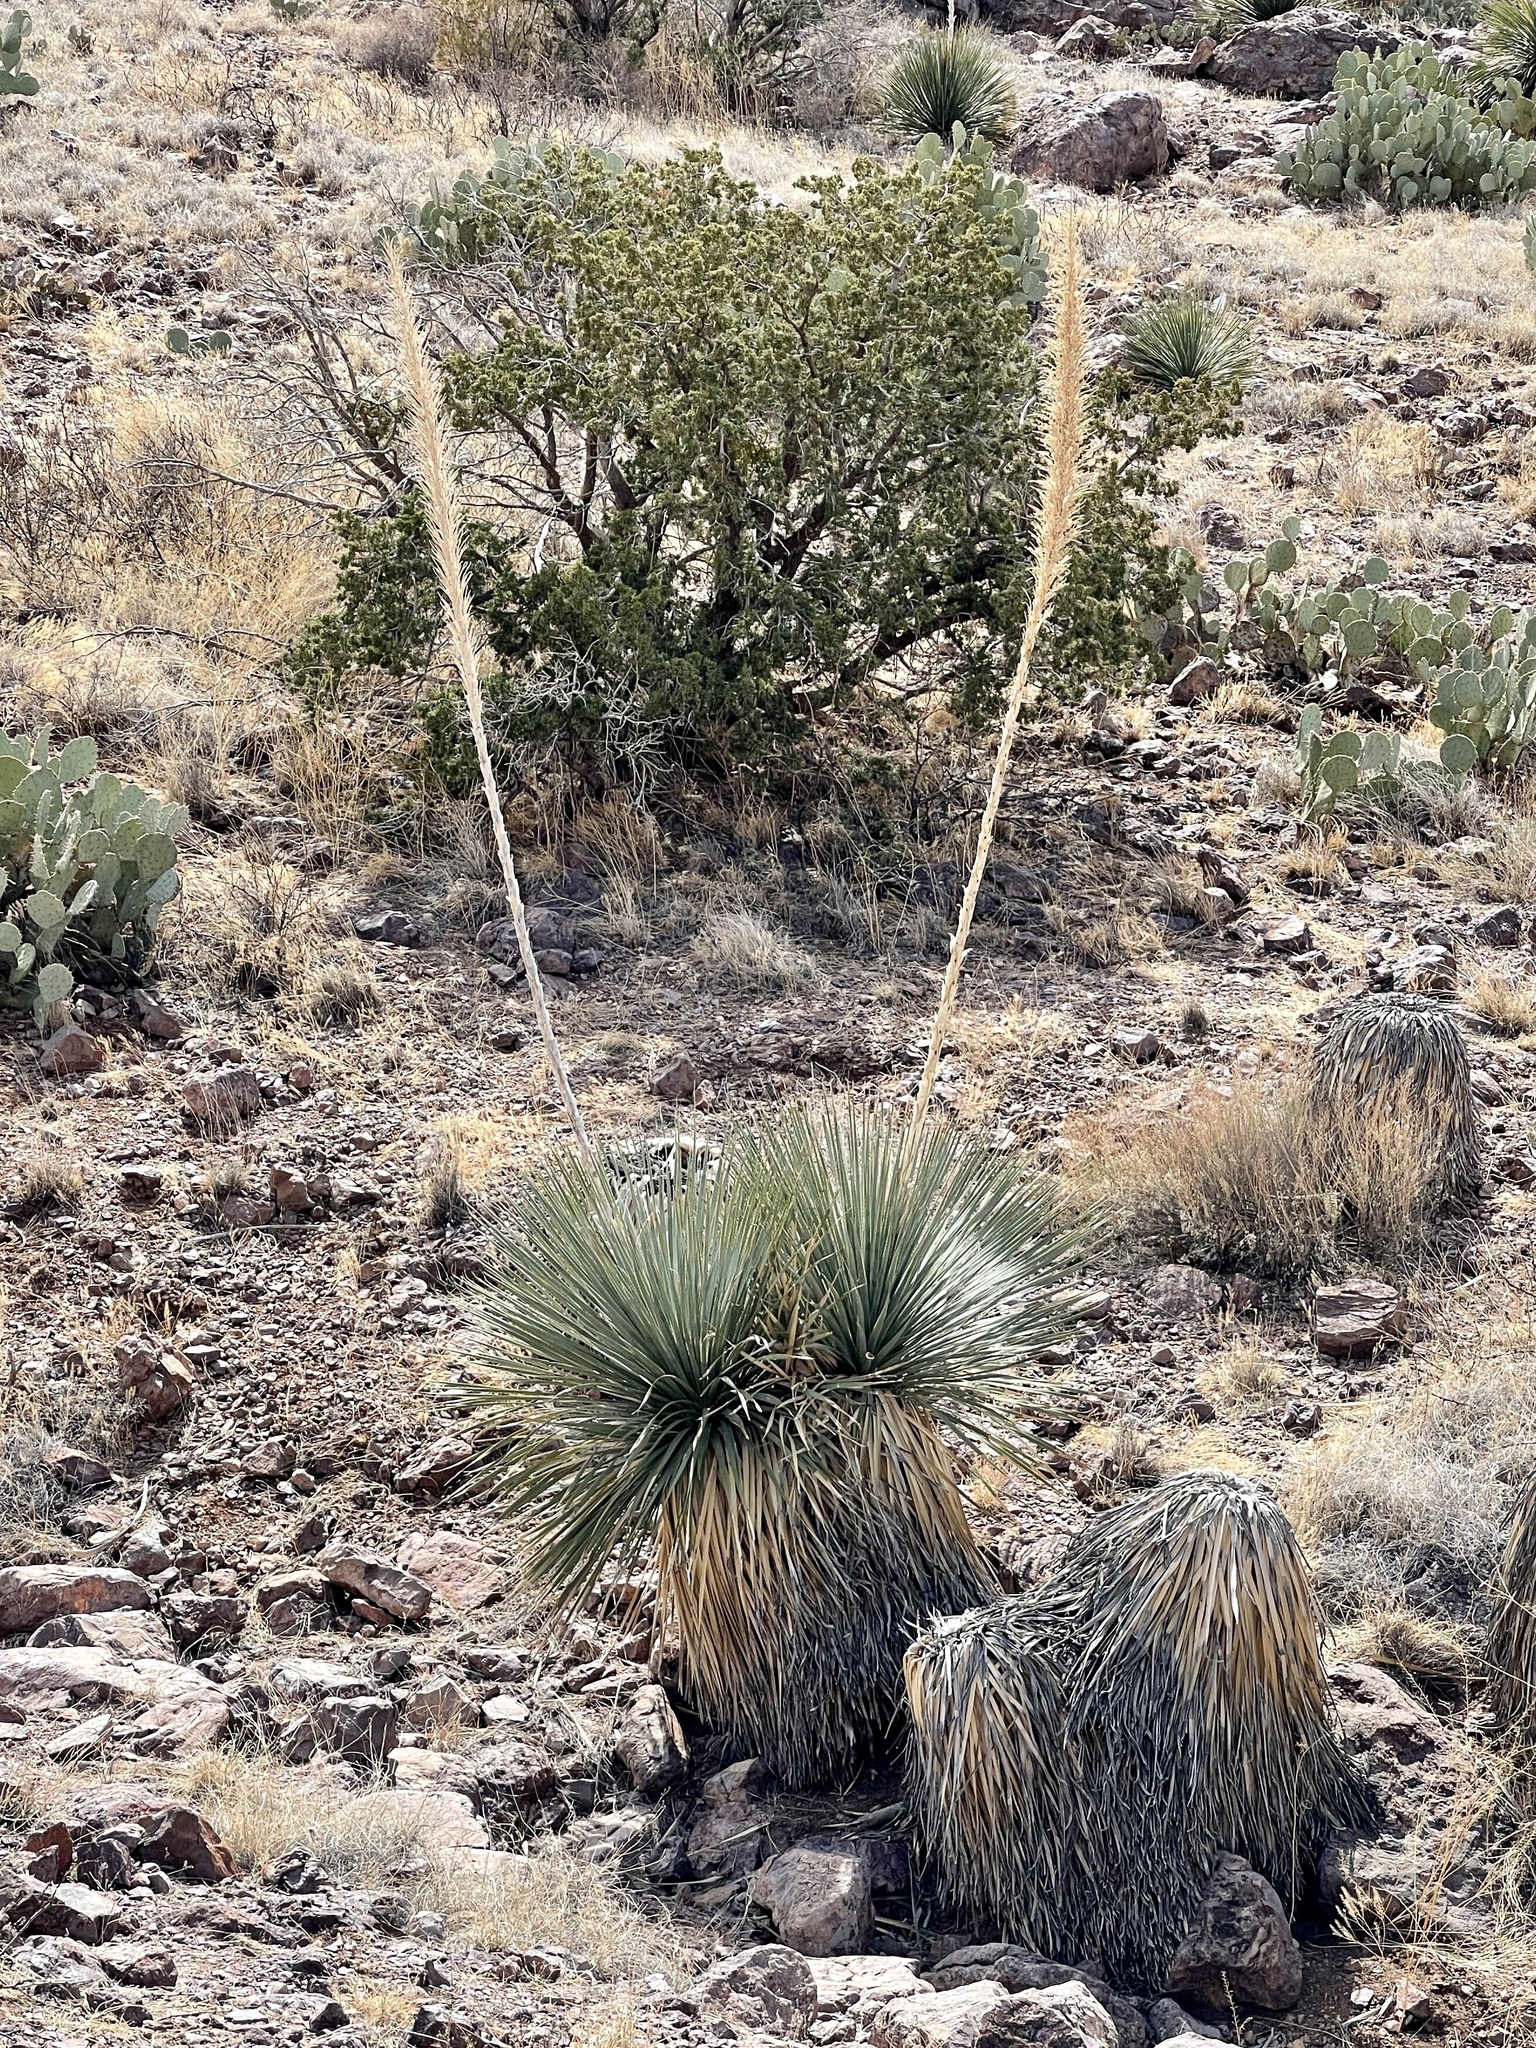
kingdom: Plantae
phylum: Tracheophyta
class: Liliopsida
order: Asparagales
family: Asparagaceae
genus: Dasylirion
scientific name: Dasylirion wheeleri
